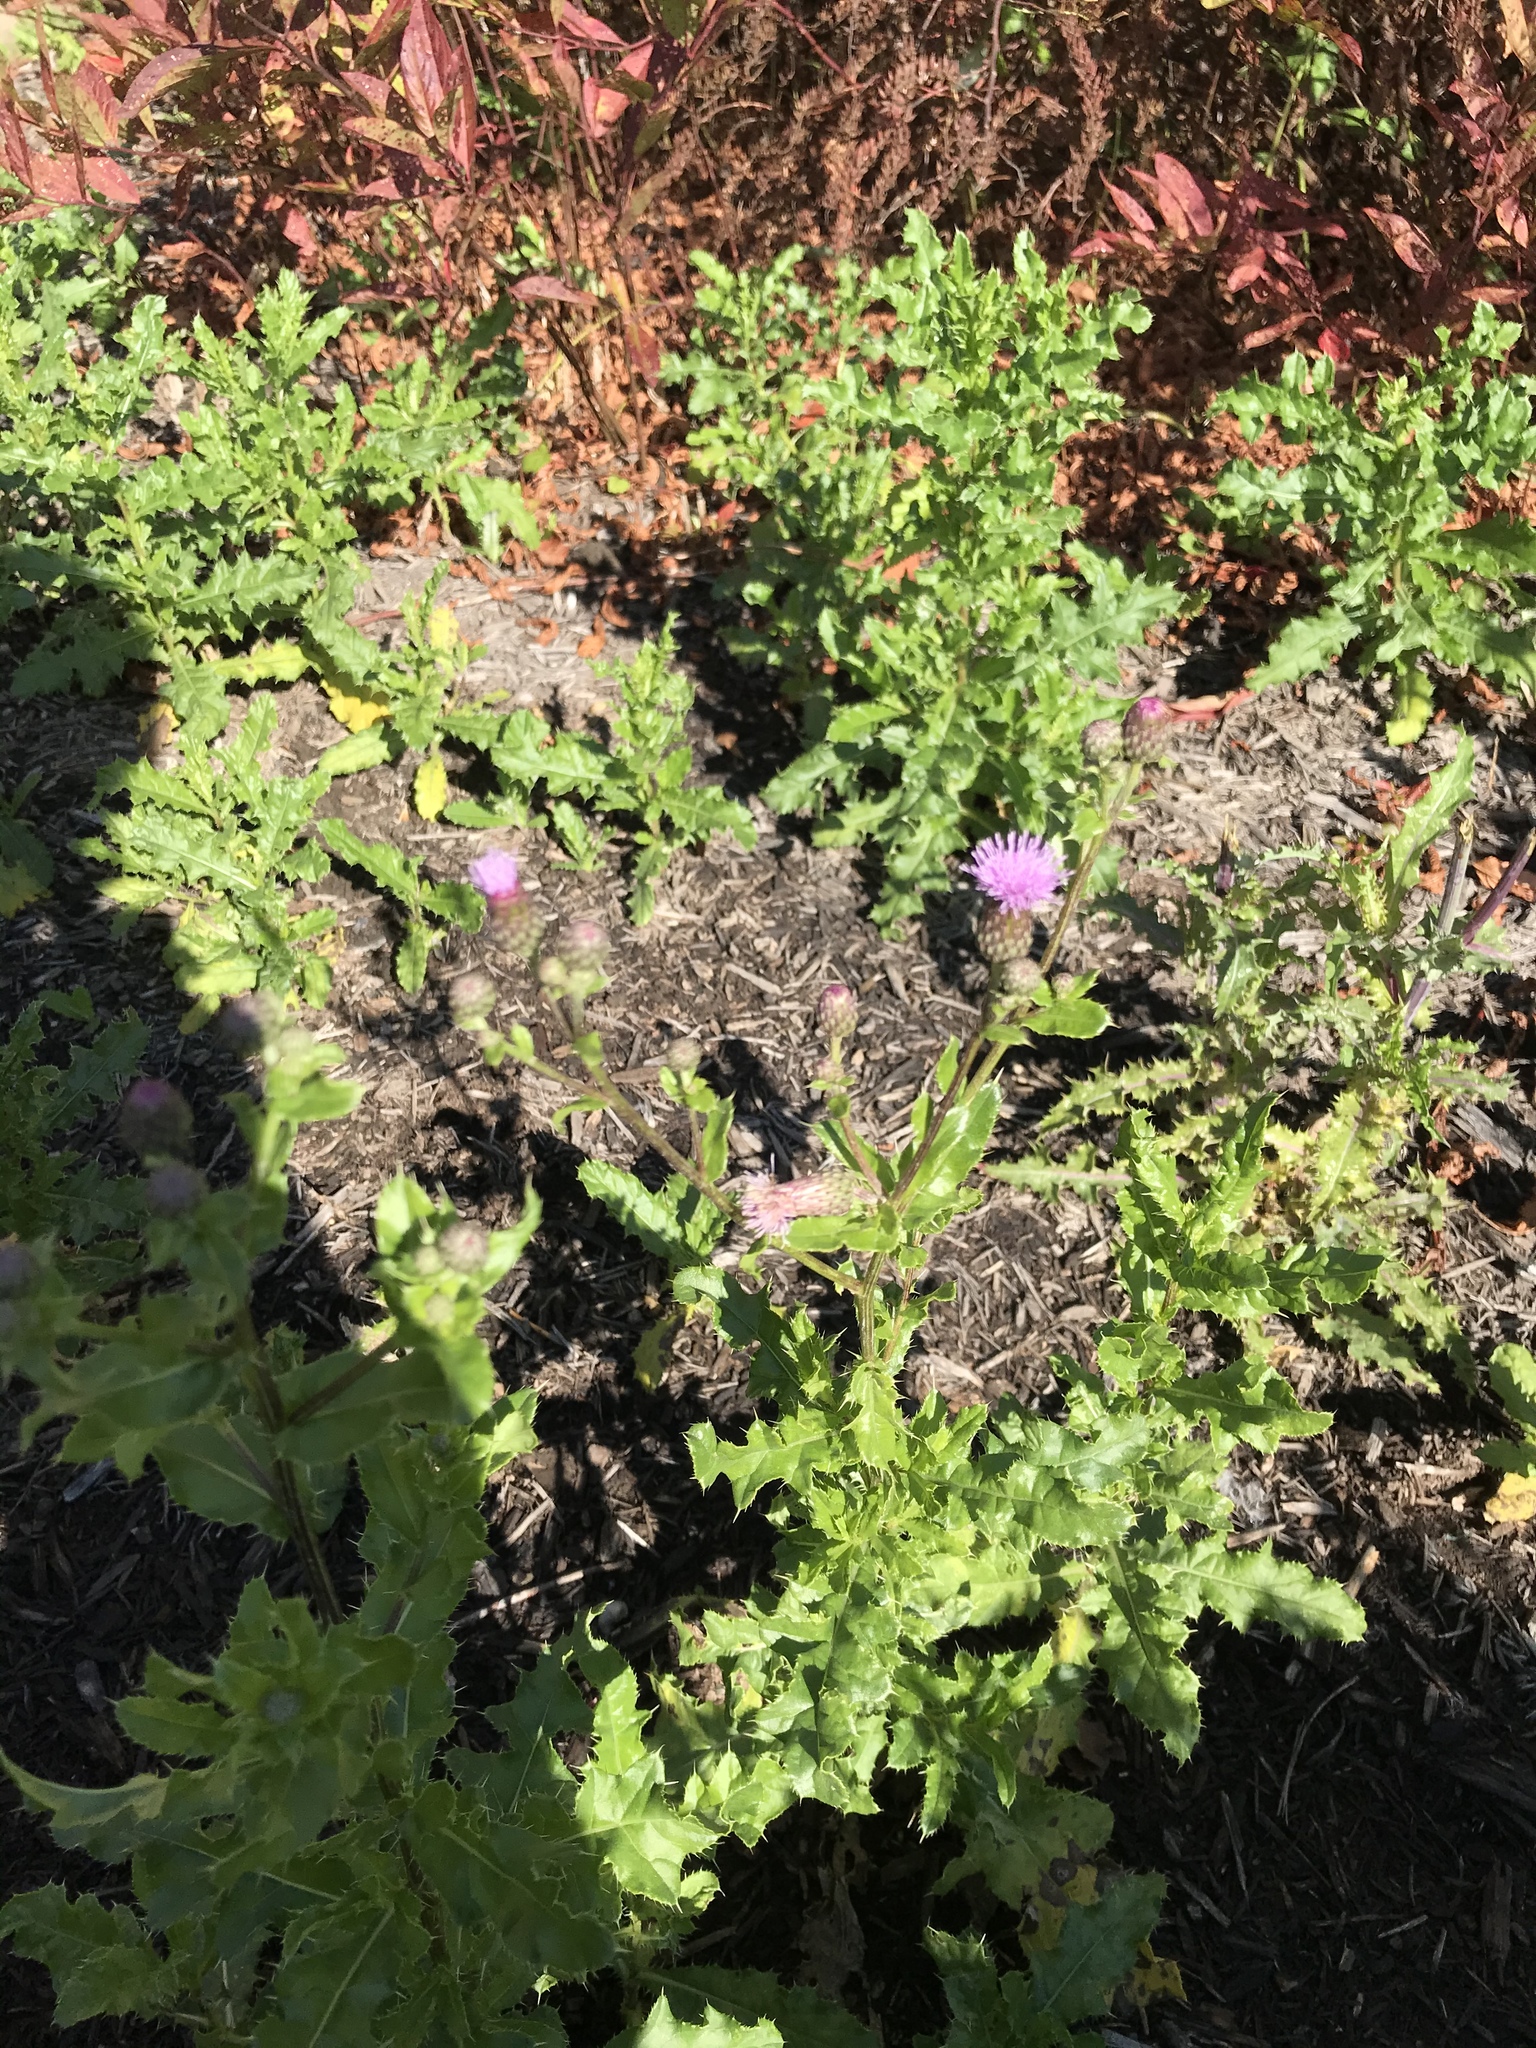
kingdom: Plantae
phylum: Tracheophyta
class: Magnoliopsida
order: Asterales
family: Asteraceae
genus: Cirsium
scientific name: Cirsium arvense
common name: Creeping thistle
